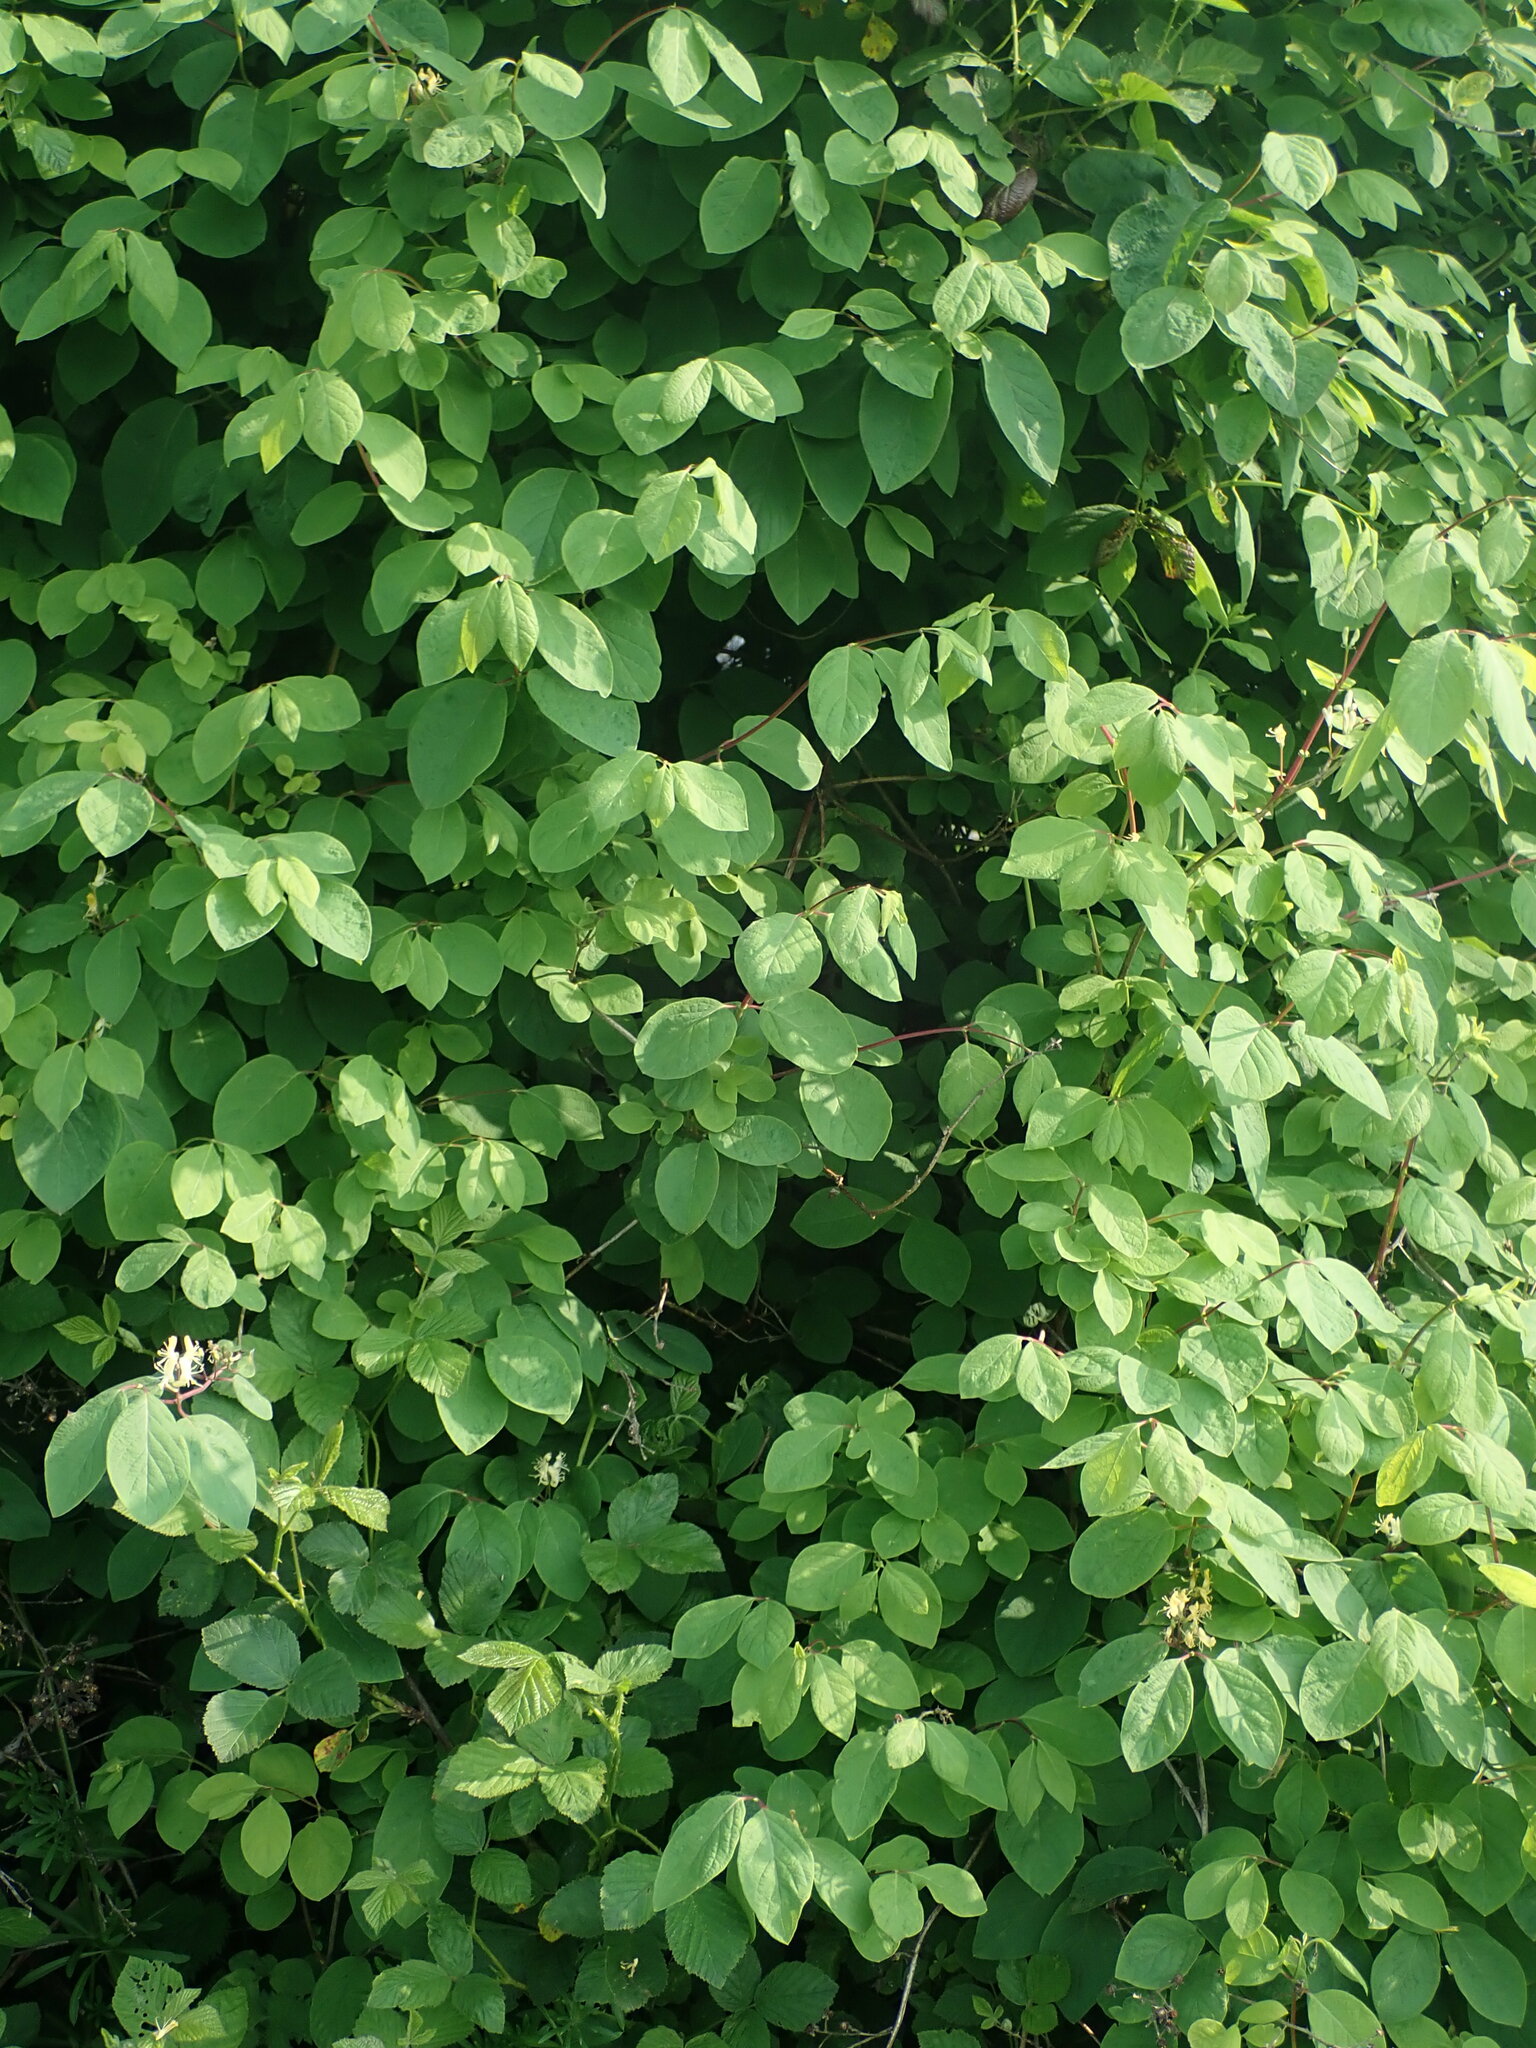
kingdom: Plantae
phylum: Tracheophyta
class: Magnoliopsida
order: Dipsacales
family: Caprifoliaceae
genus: Lonicera
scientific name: Lonicera xylosteum
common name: Fly honeysuckle
